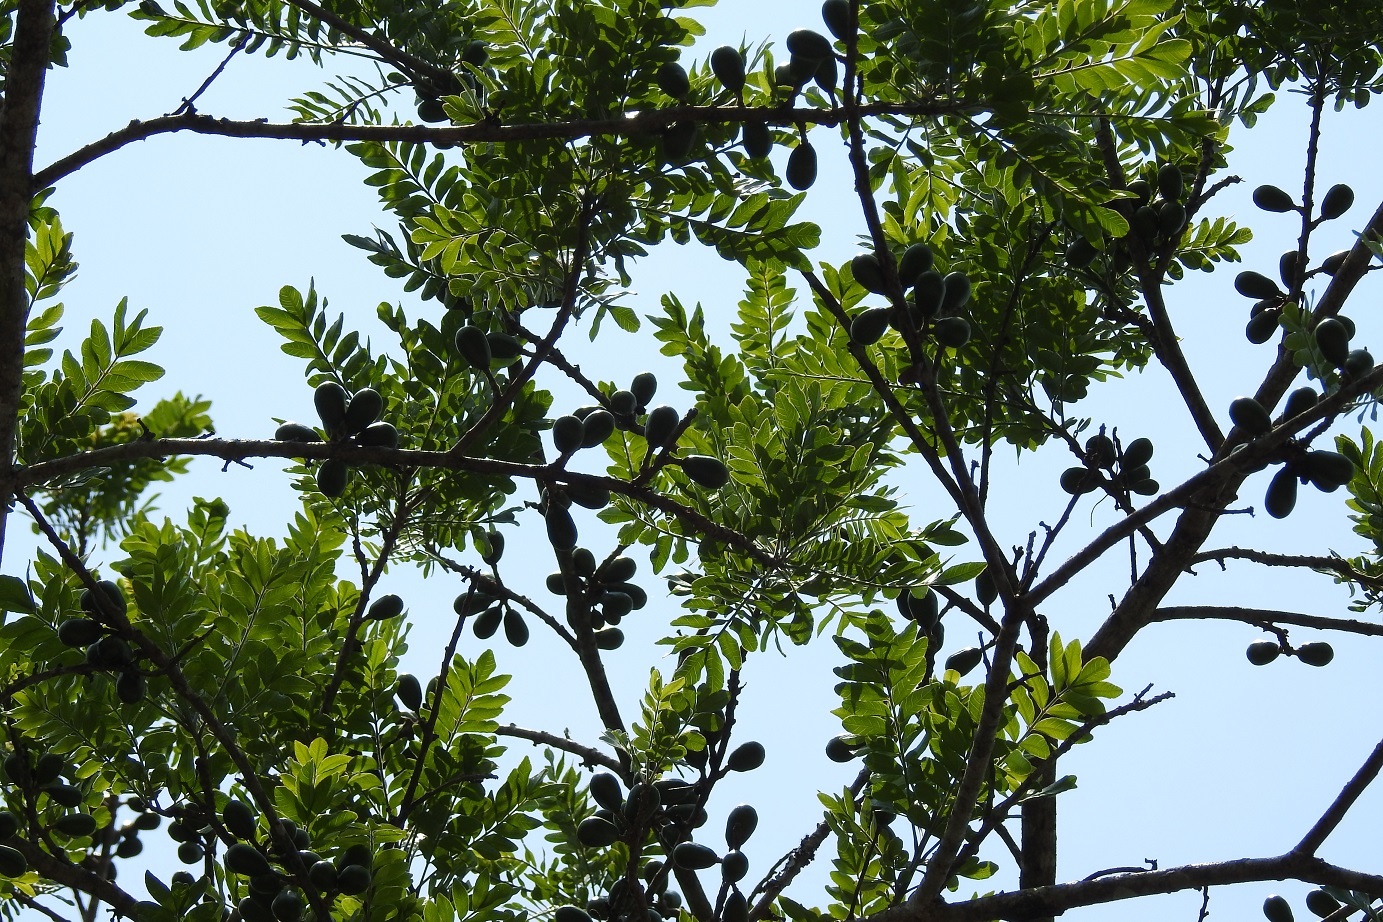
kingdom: Plantae
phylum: Tracheophyta
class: Magnoliopsida
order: Sapindales
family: Anacardiaceae
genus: Spondias
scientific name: Spondias purpurea
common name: Purple mombin
